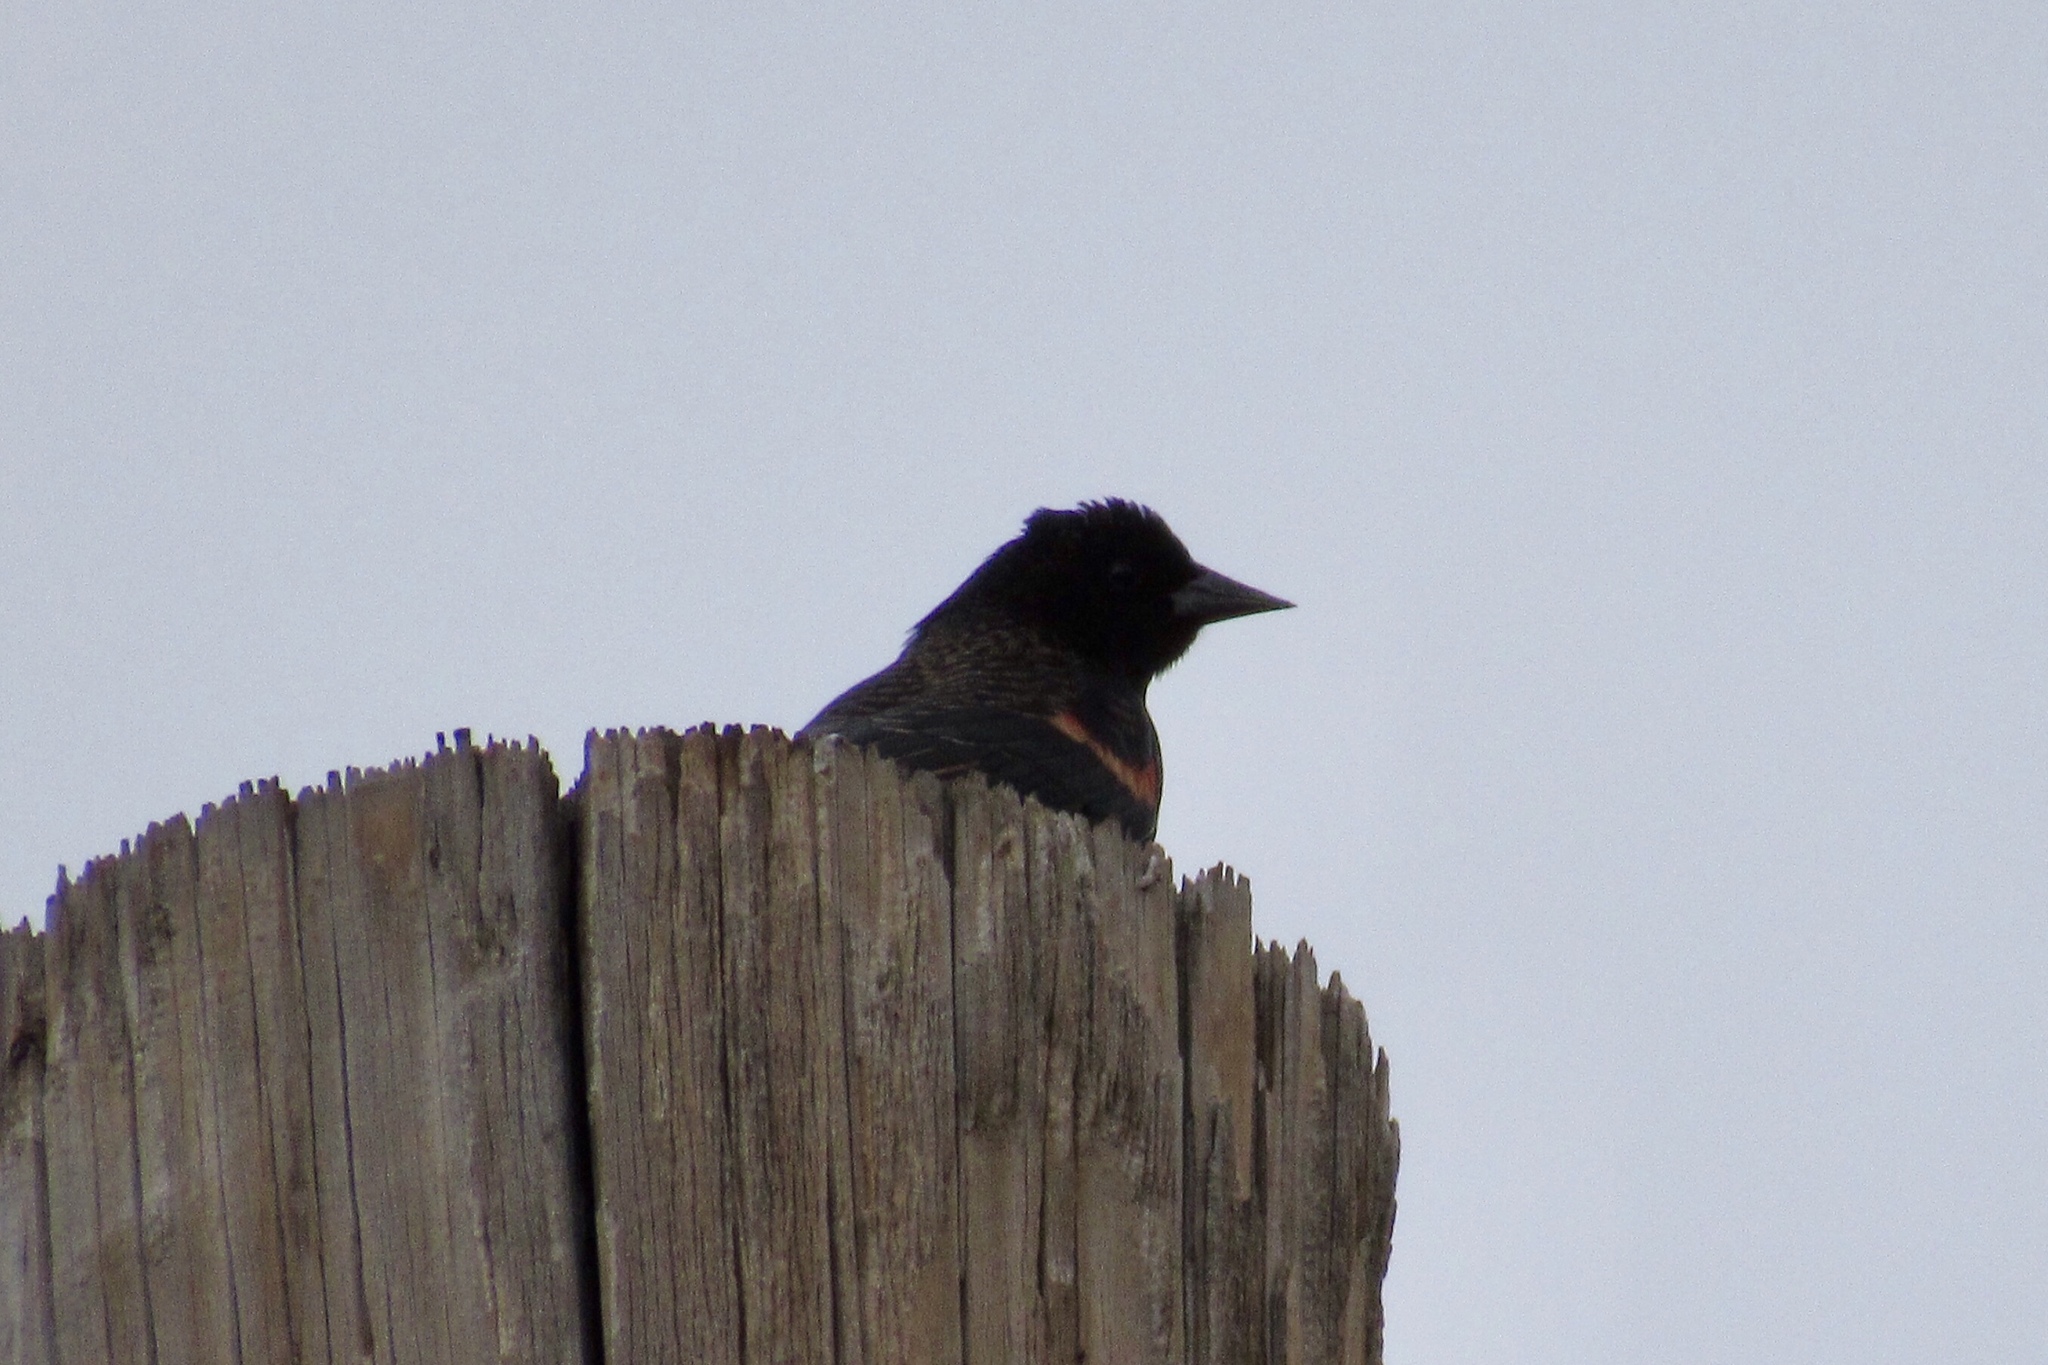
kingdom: Animalia
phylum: Chordata
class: Aves
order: Passeriformes
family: Icteridae
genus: Agelaius
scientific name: Agelaius phoeniceus
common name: Red-winged blackbird
